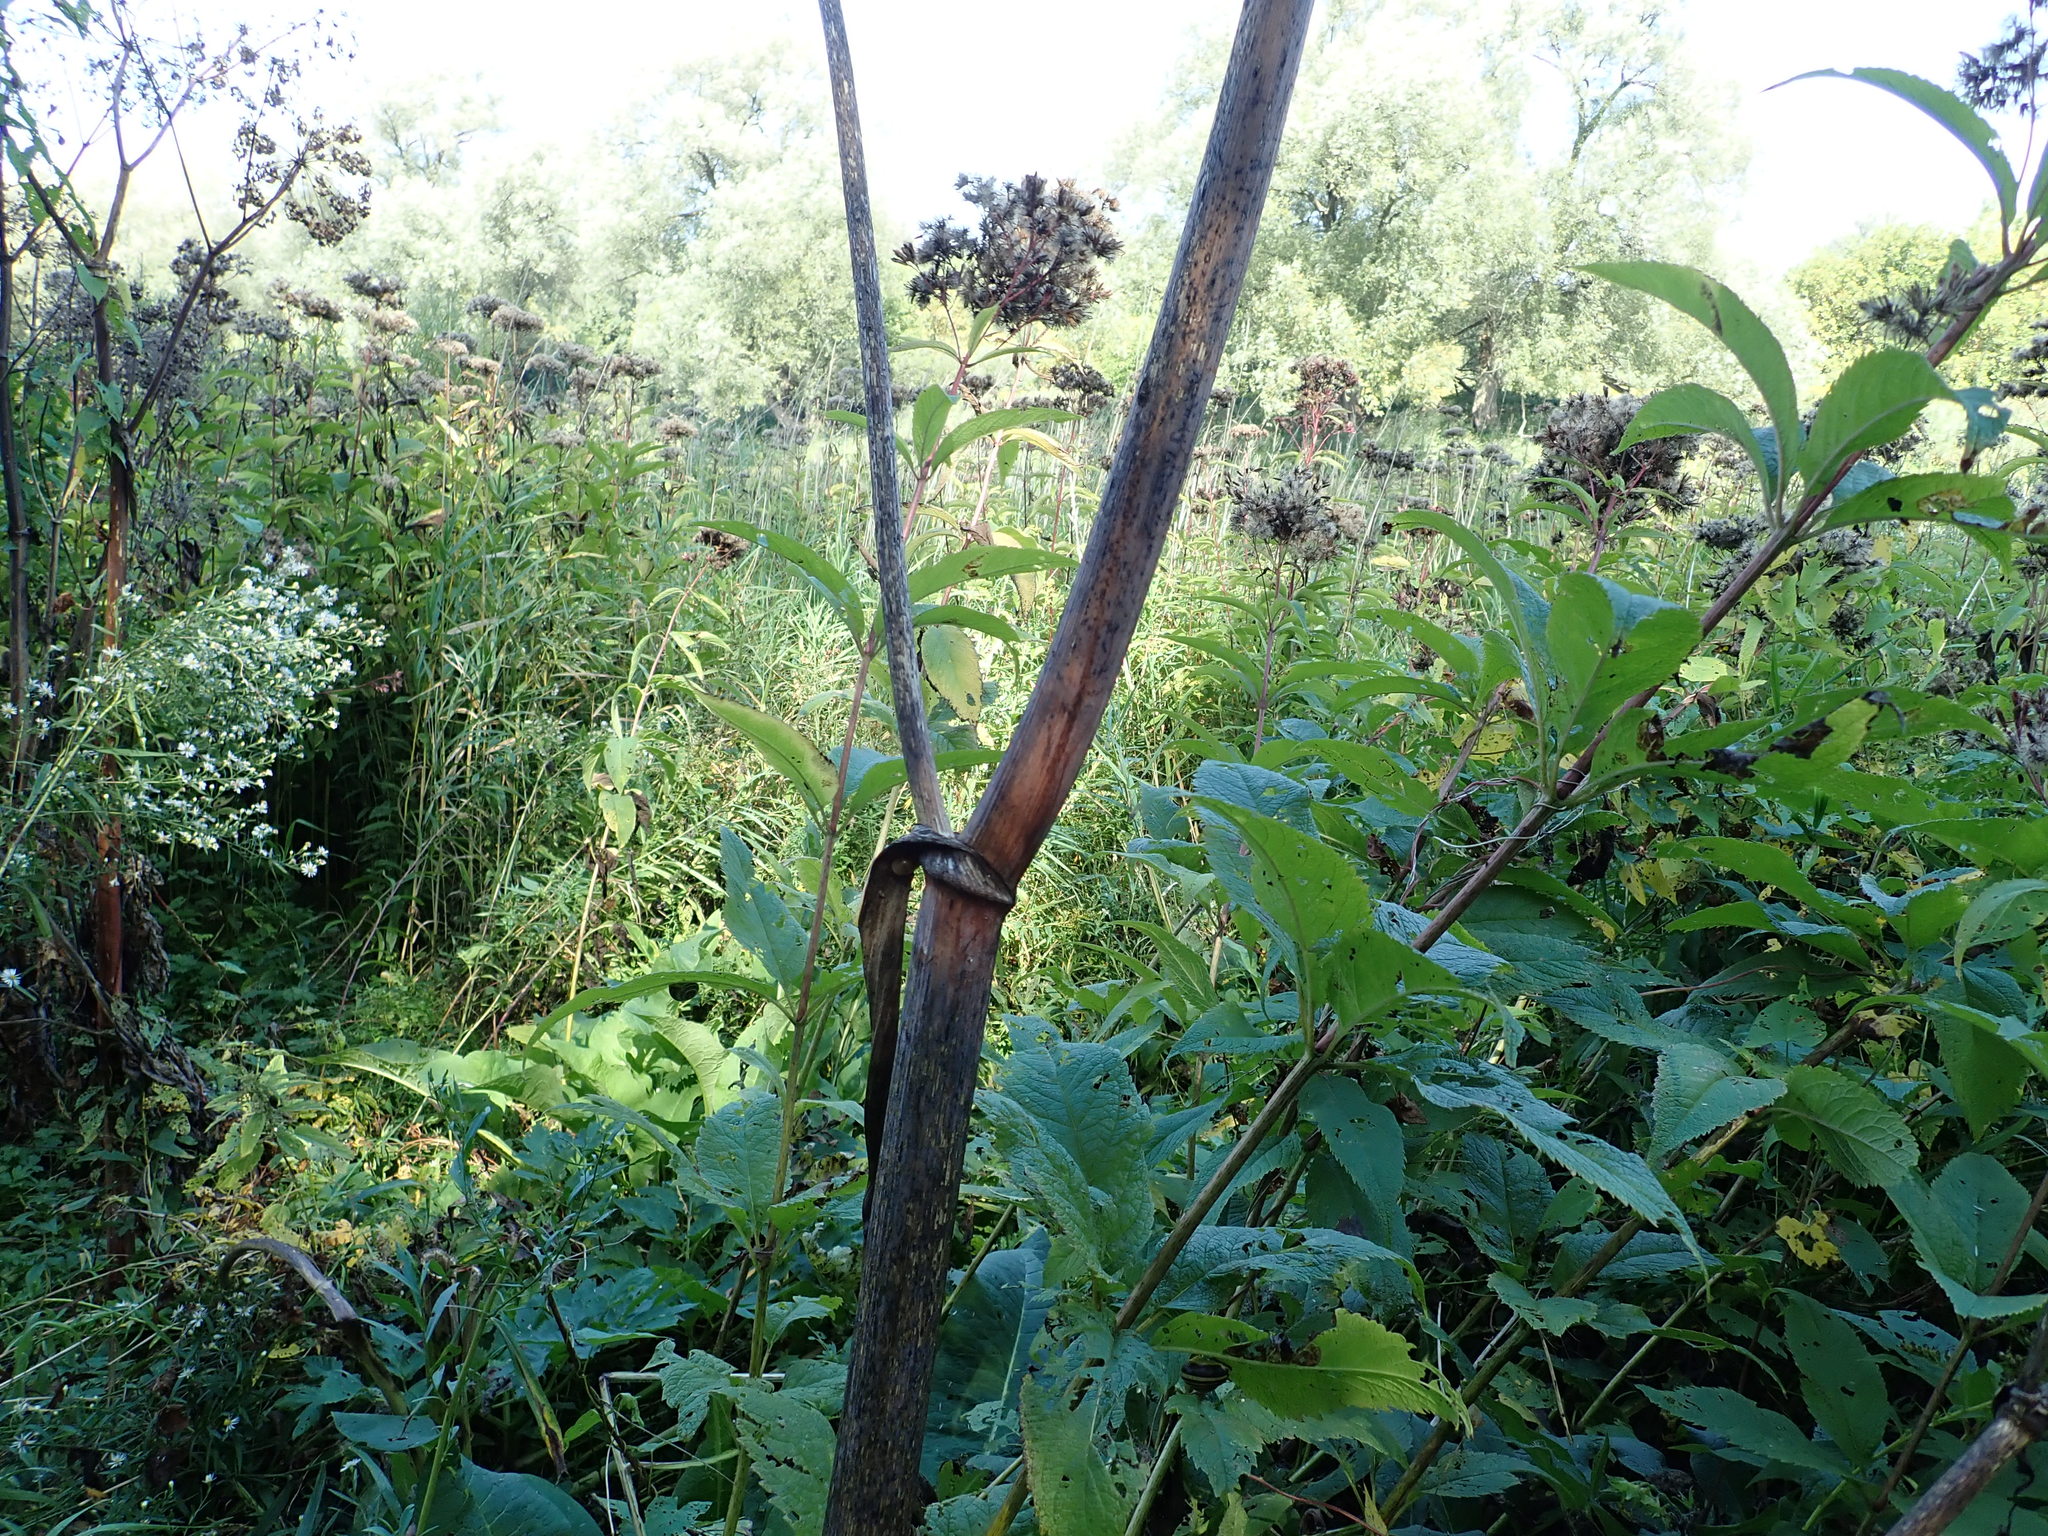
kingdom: Plantae
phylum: Tracheophyta
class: Magnoliopsida
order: Apiales
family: Apiaceae
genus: Angelica
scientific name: Angelica atropurpurea
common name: Great angelica
